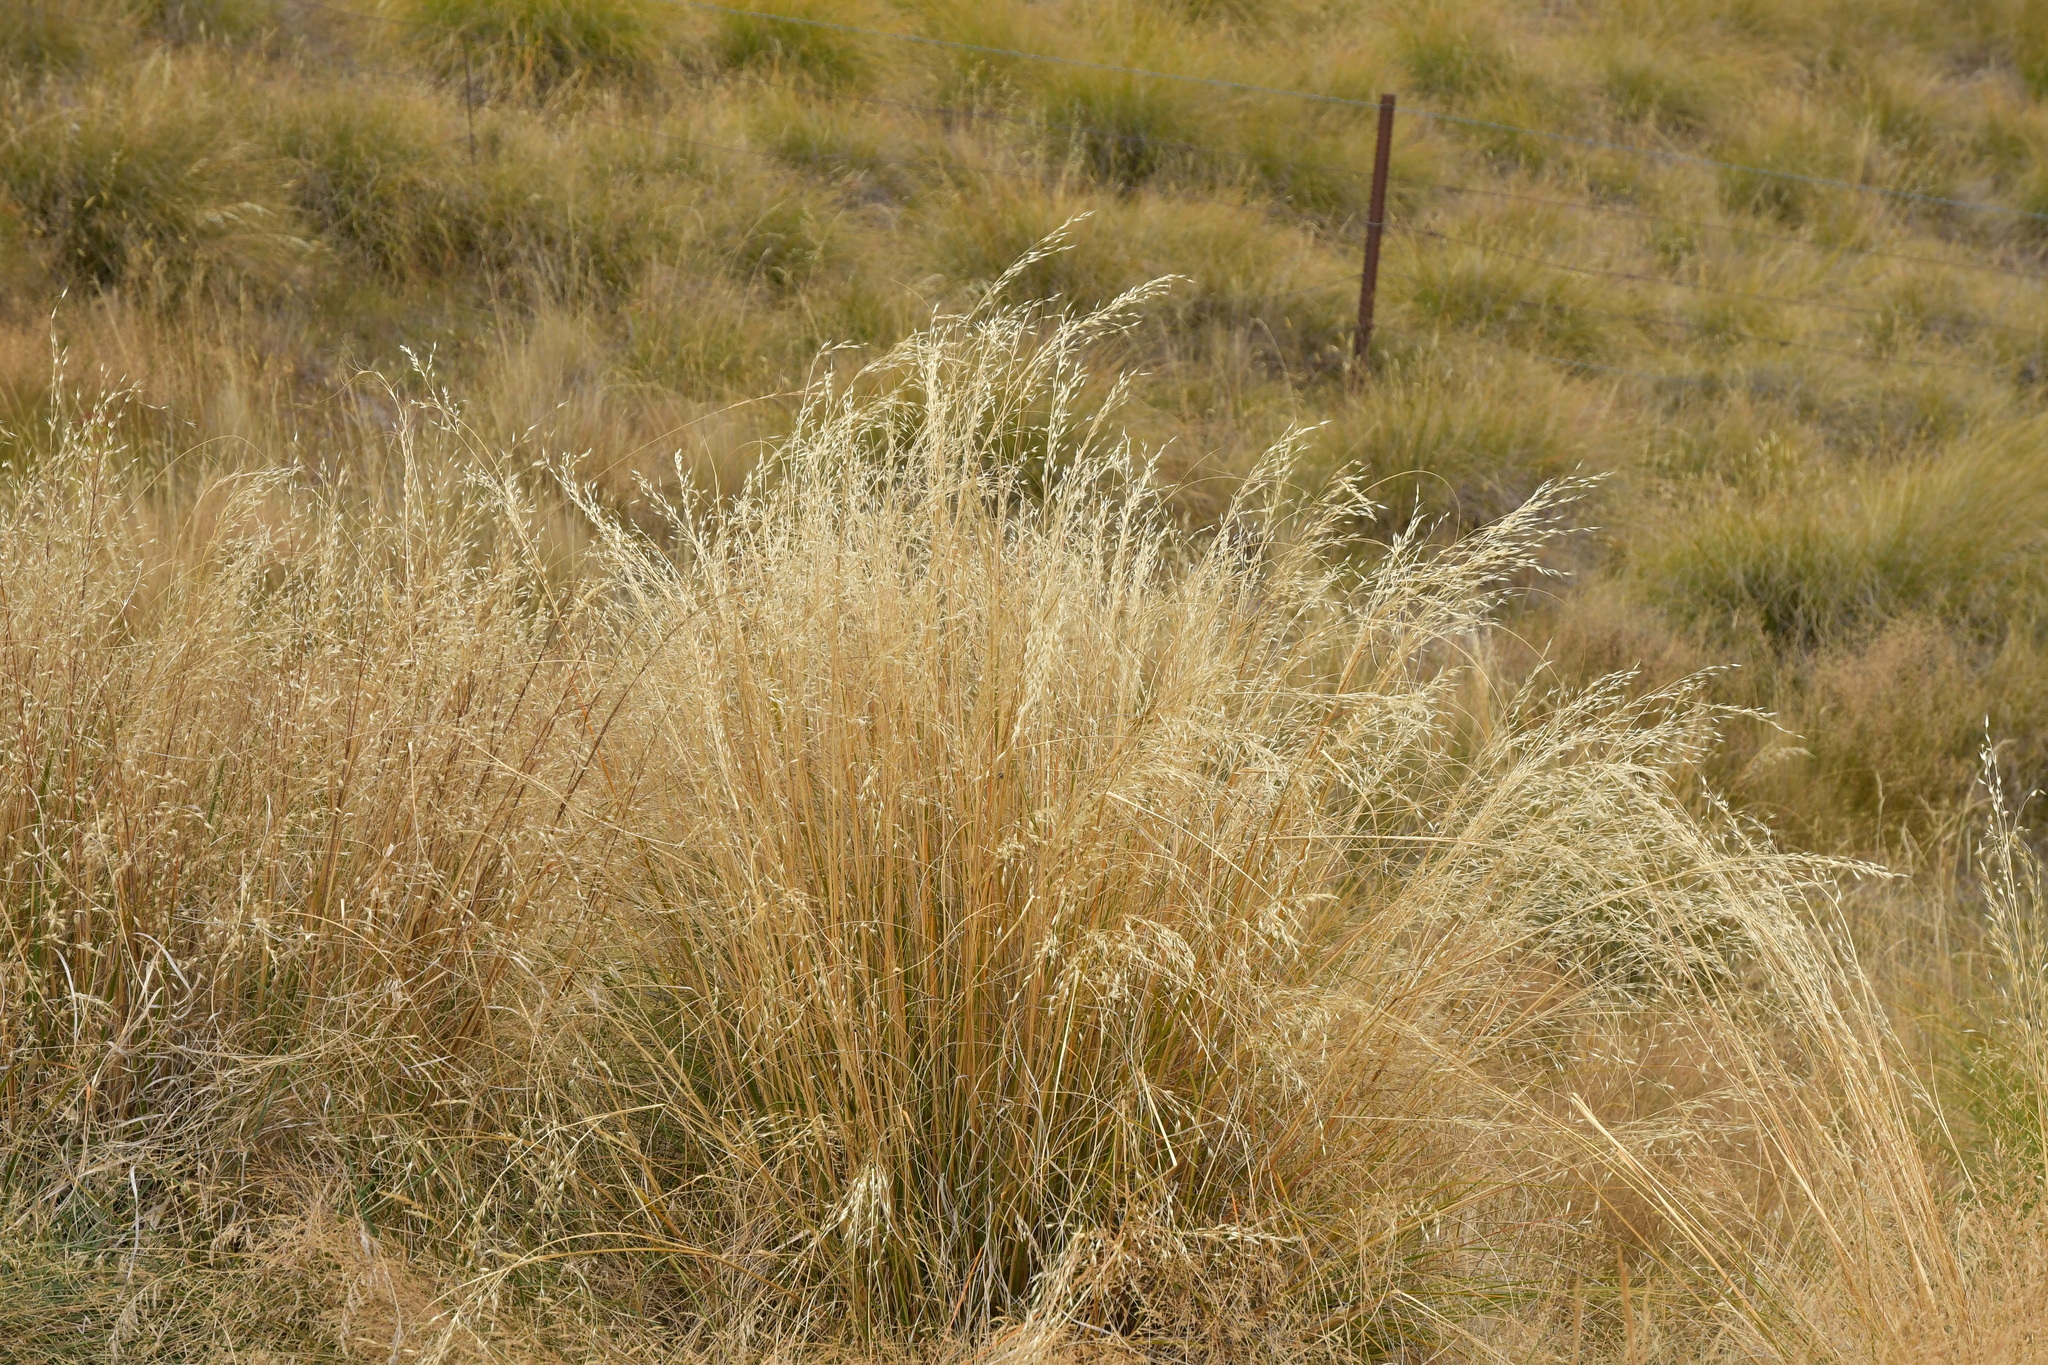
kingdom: Plantae
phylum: Tracheophyta
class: Liliopsida
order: Poales
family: Poaceae
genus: Chionochloa
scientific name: Chionochloa rigida
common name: Narrow leaved snow tussock
